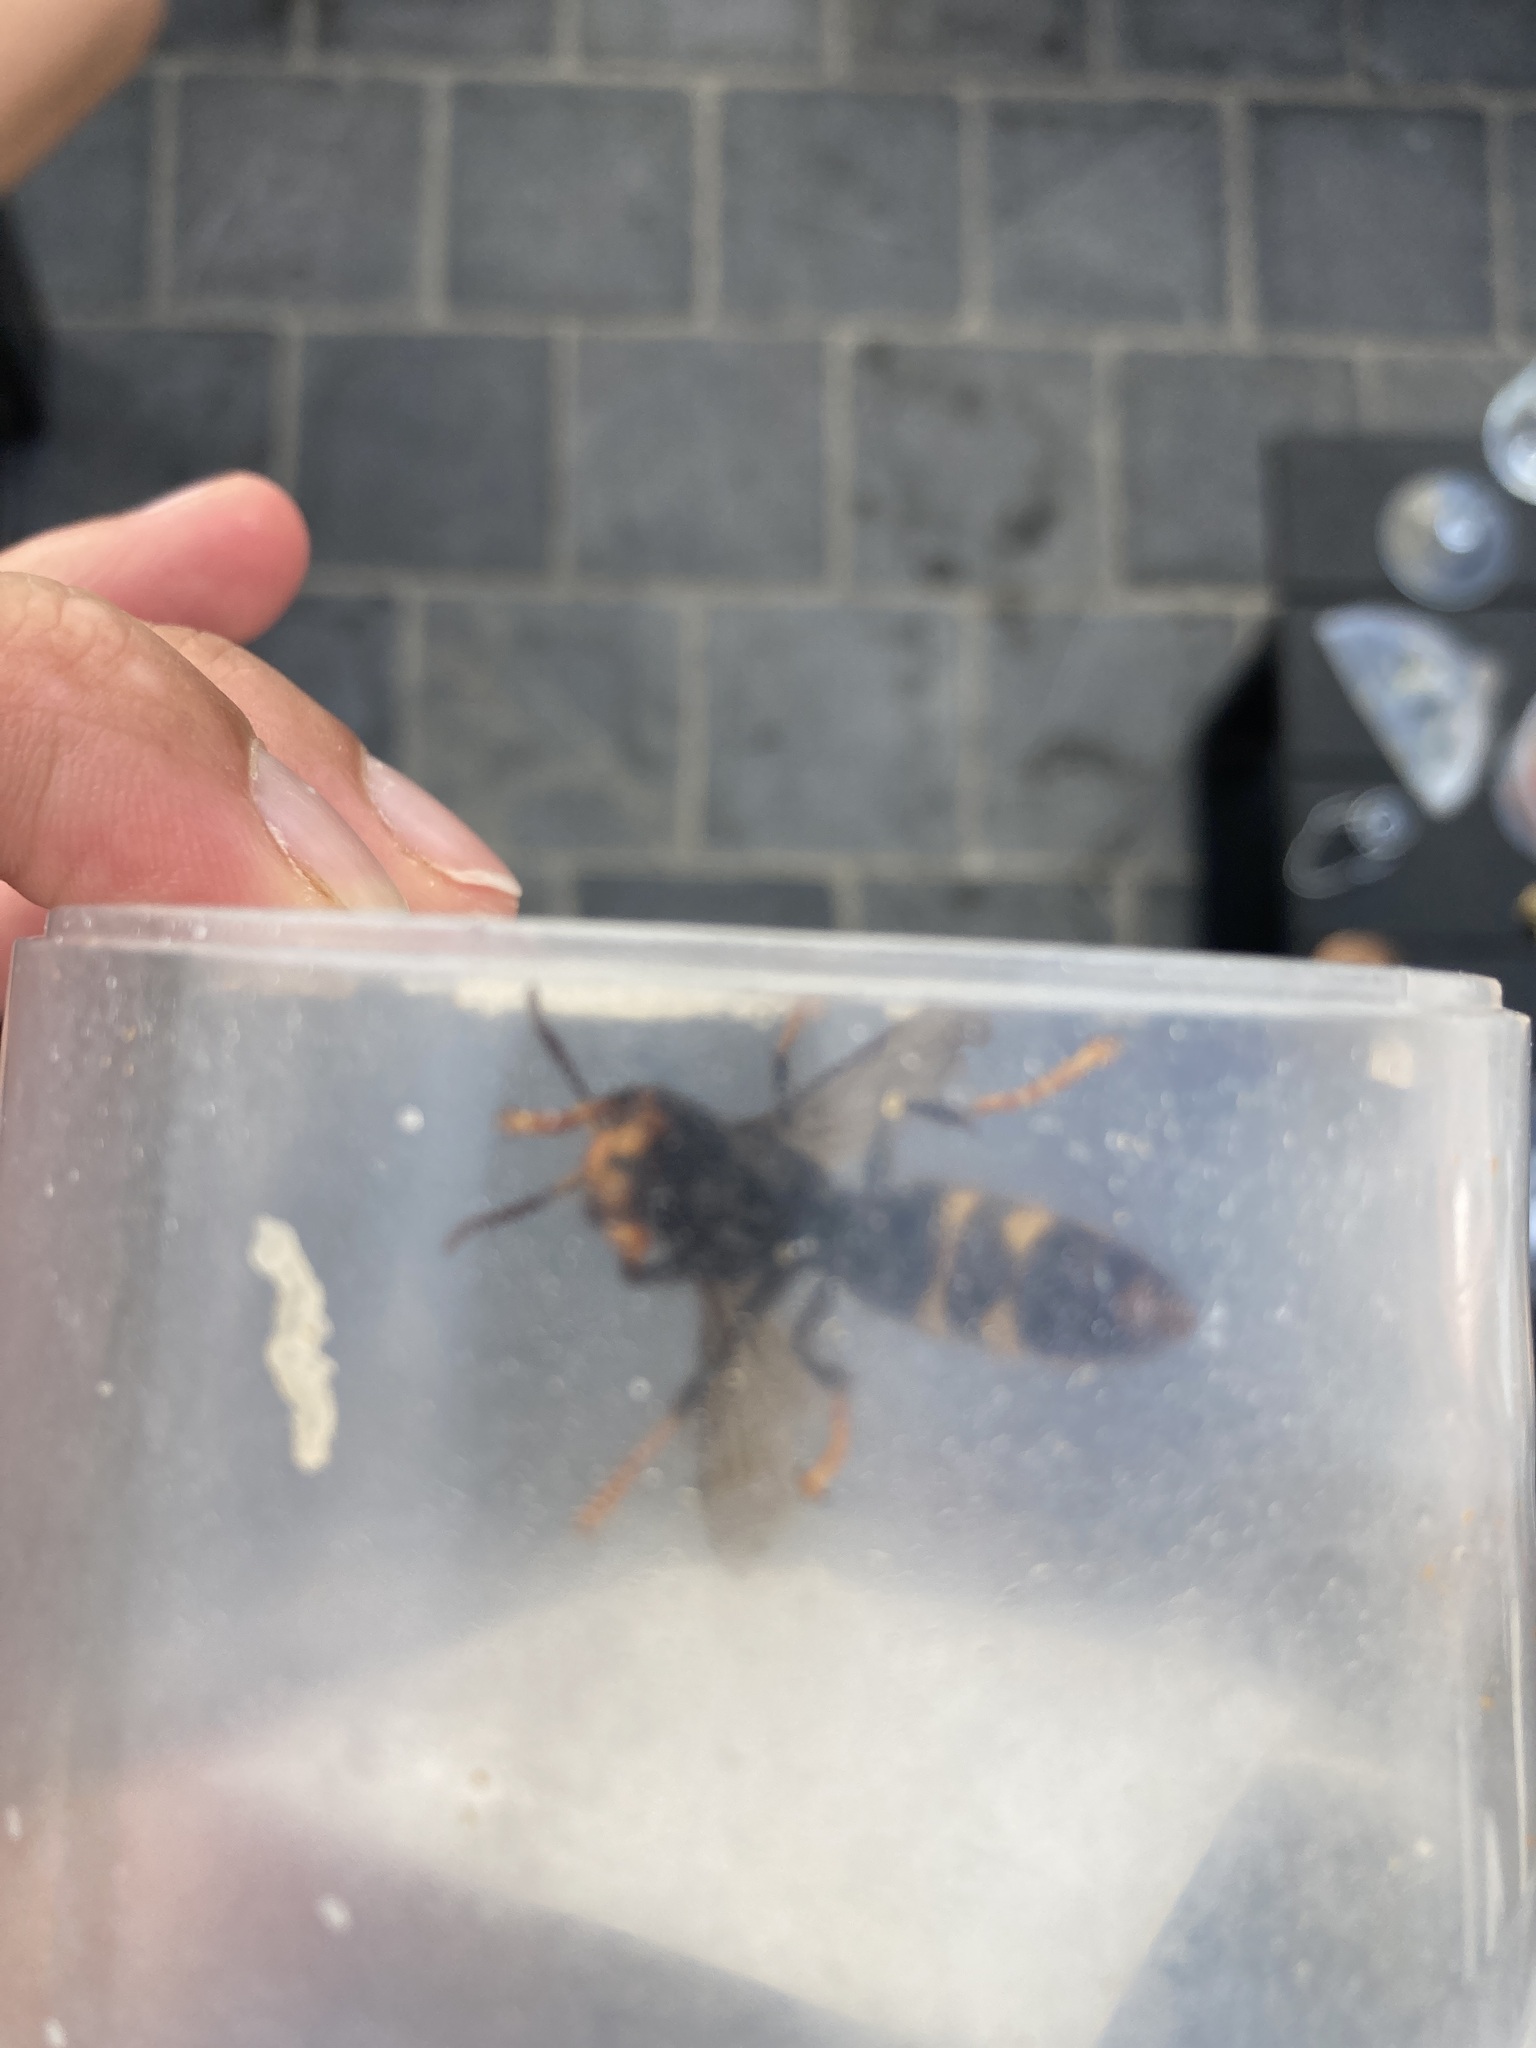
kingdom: Animalia
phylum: Arthropoda
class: Insecta
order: Hymenoptera
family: Vespidae
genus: Vespa
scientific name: Vespa velutina
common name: Asian hornet
